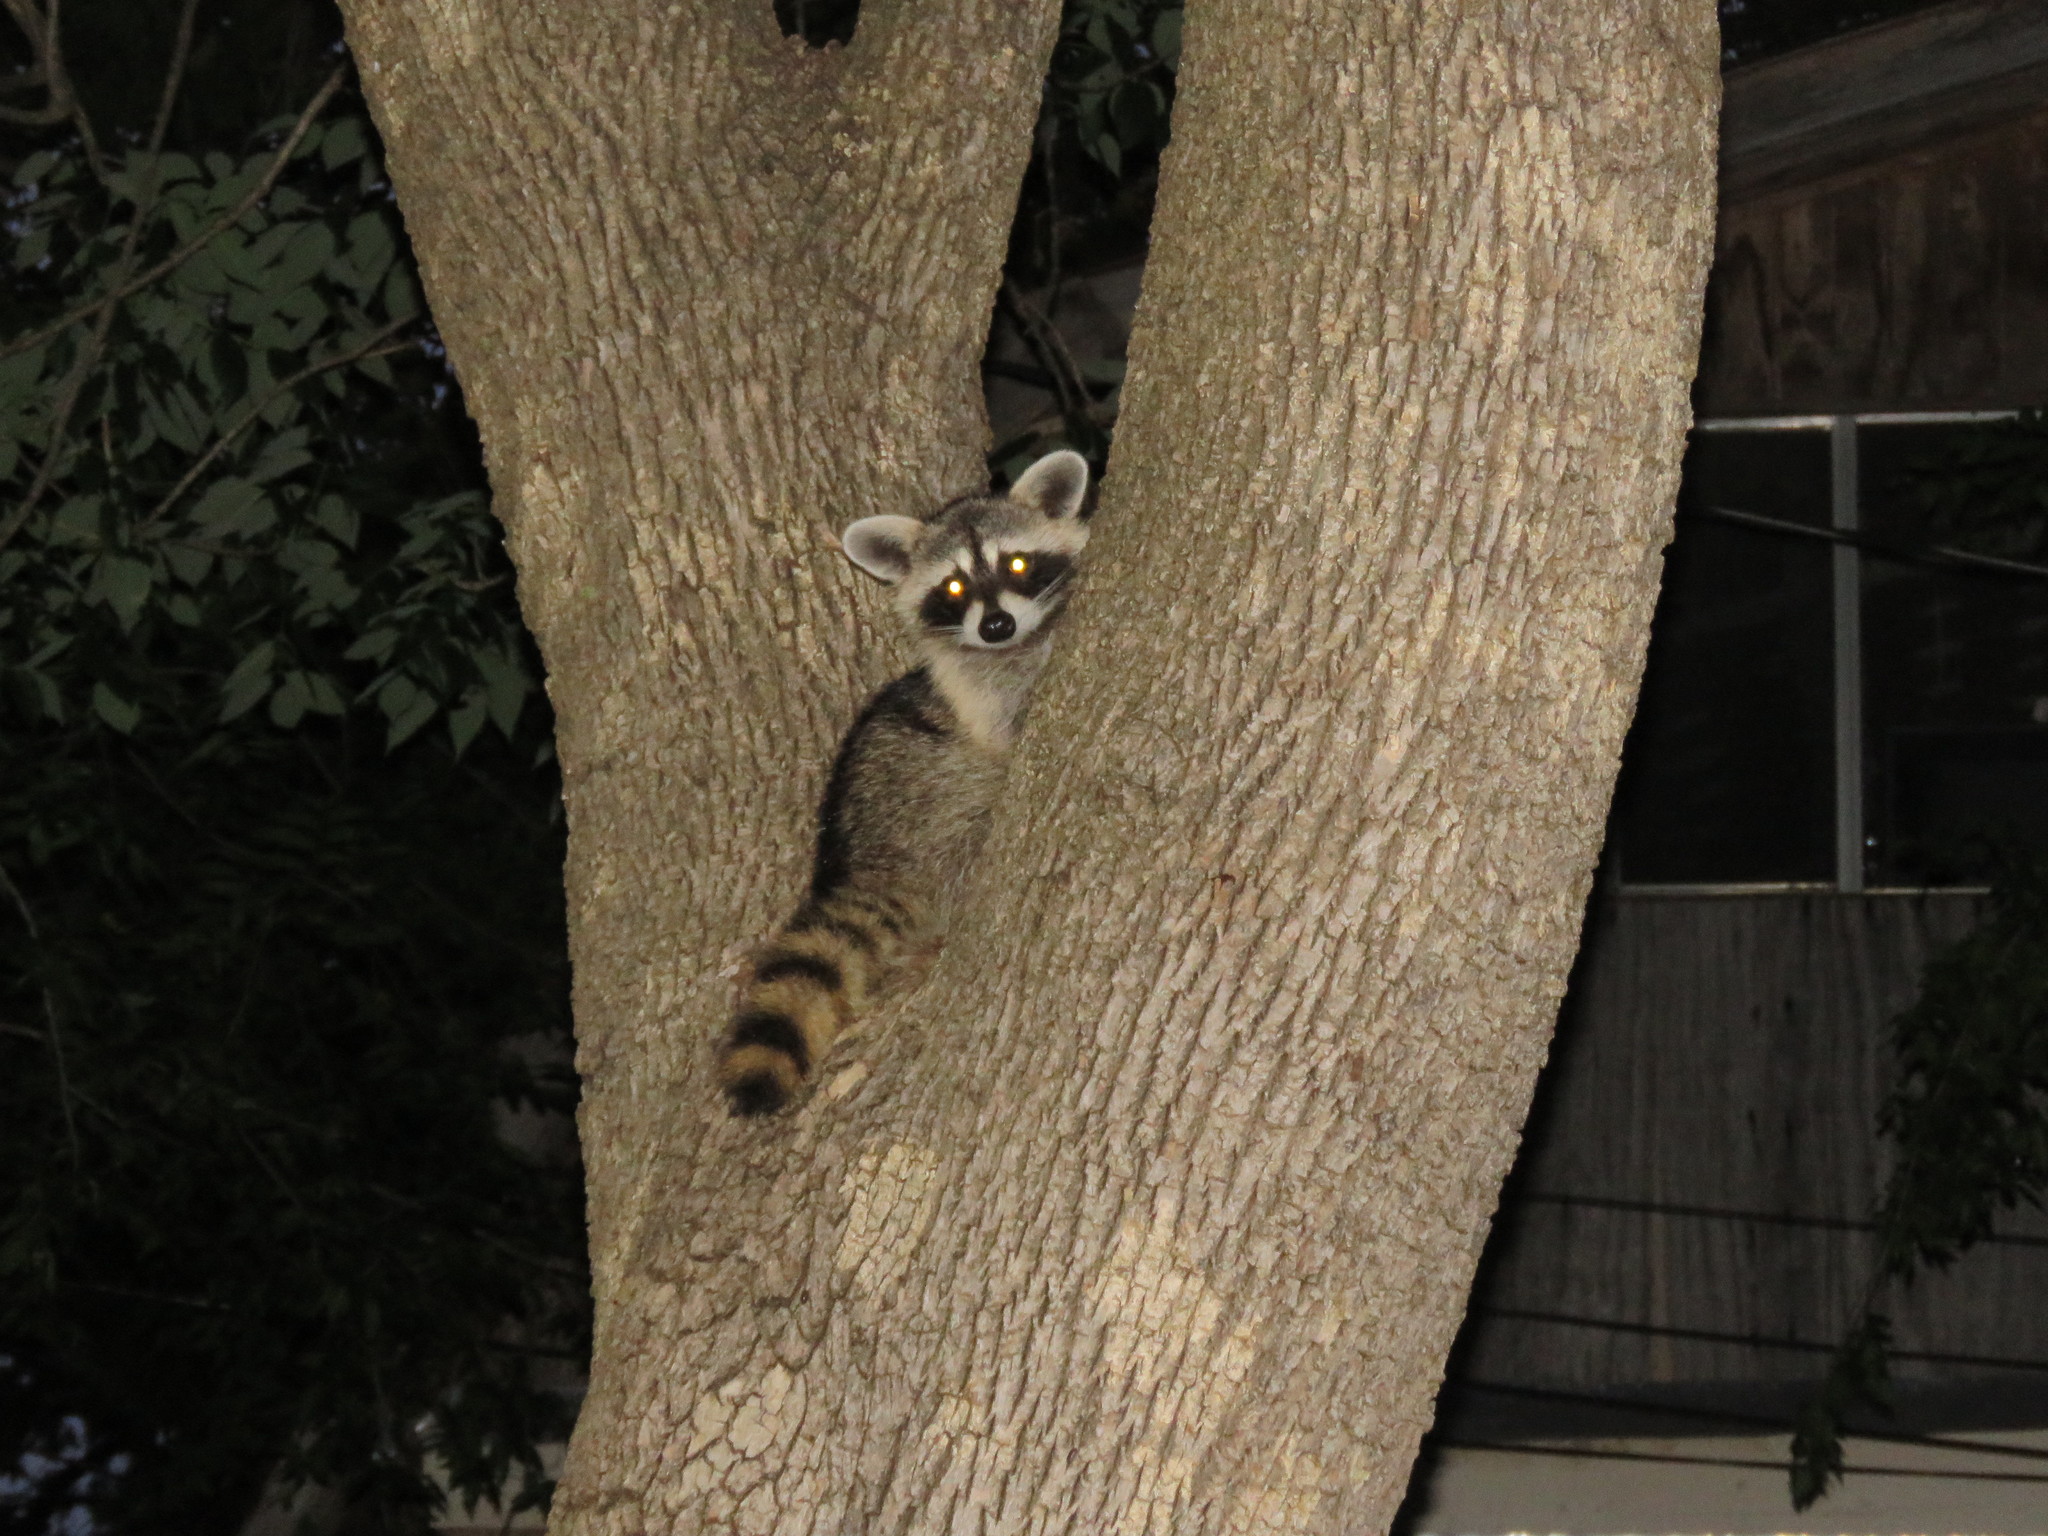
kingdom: Animalia
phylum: Chordata
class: Mammalia
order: Carnivora
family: Procyonidae
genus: Procyon
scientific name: Procyon lotor
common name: Raccoon
